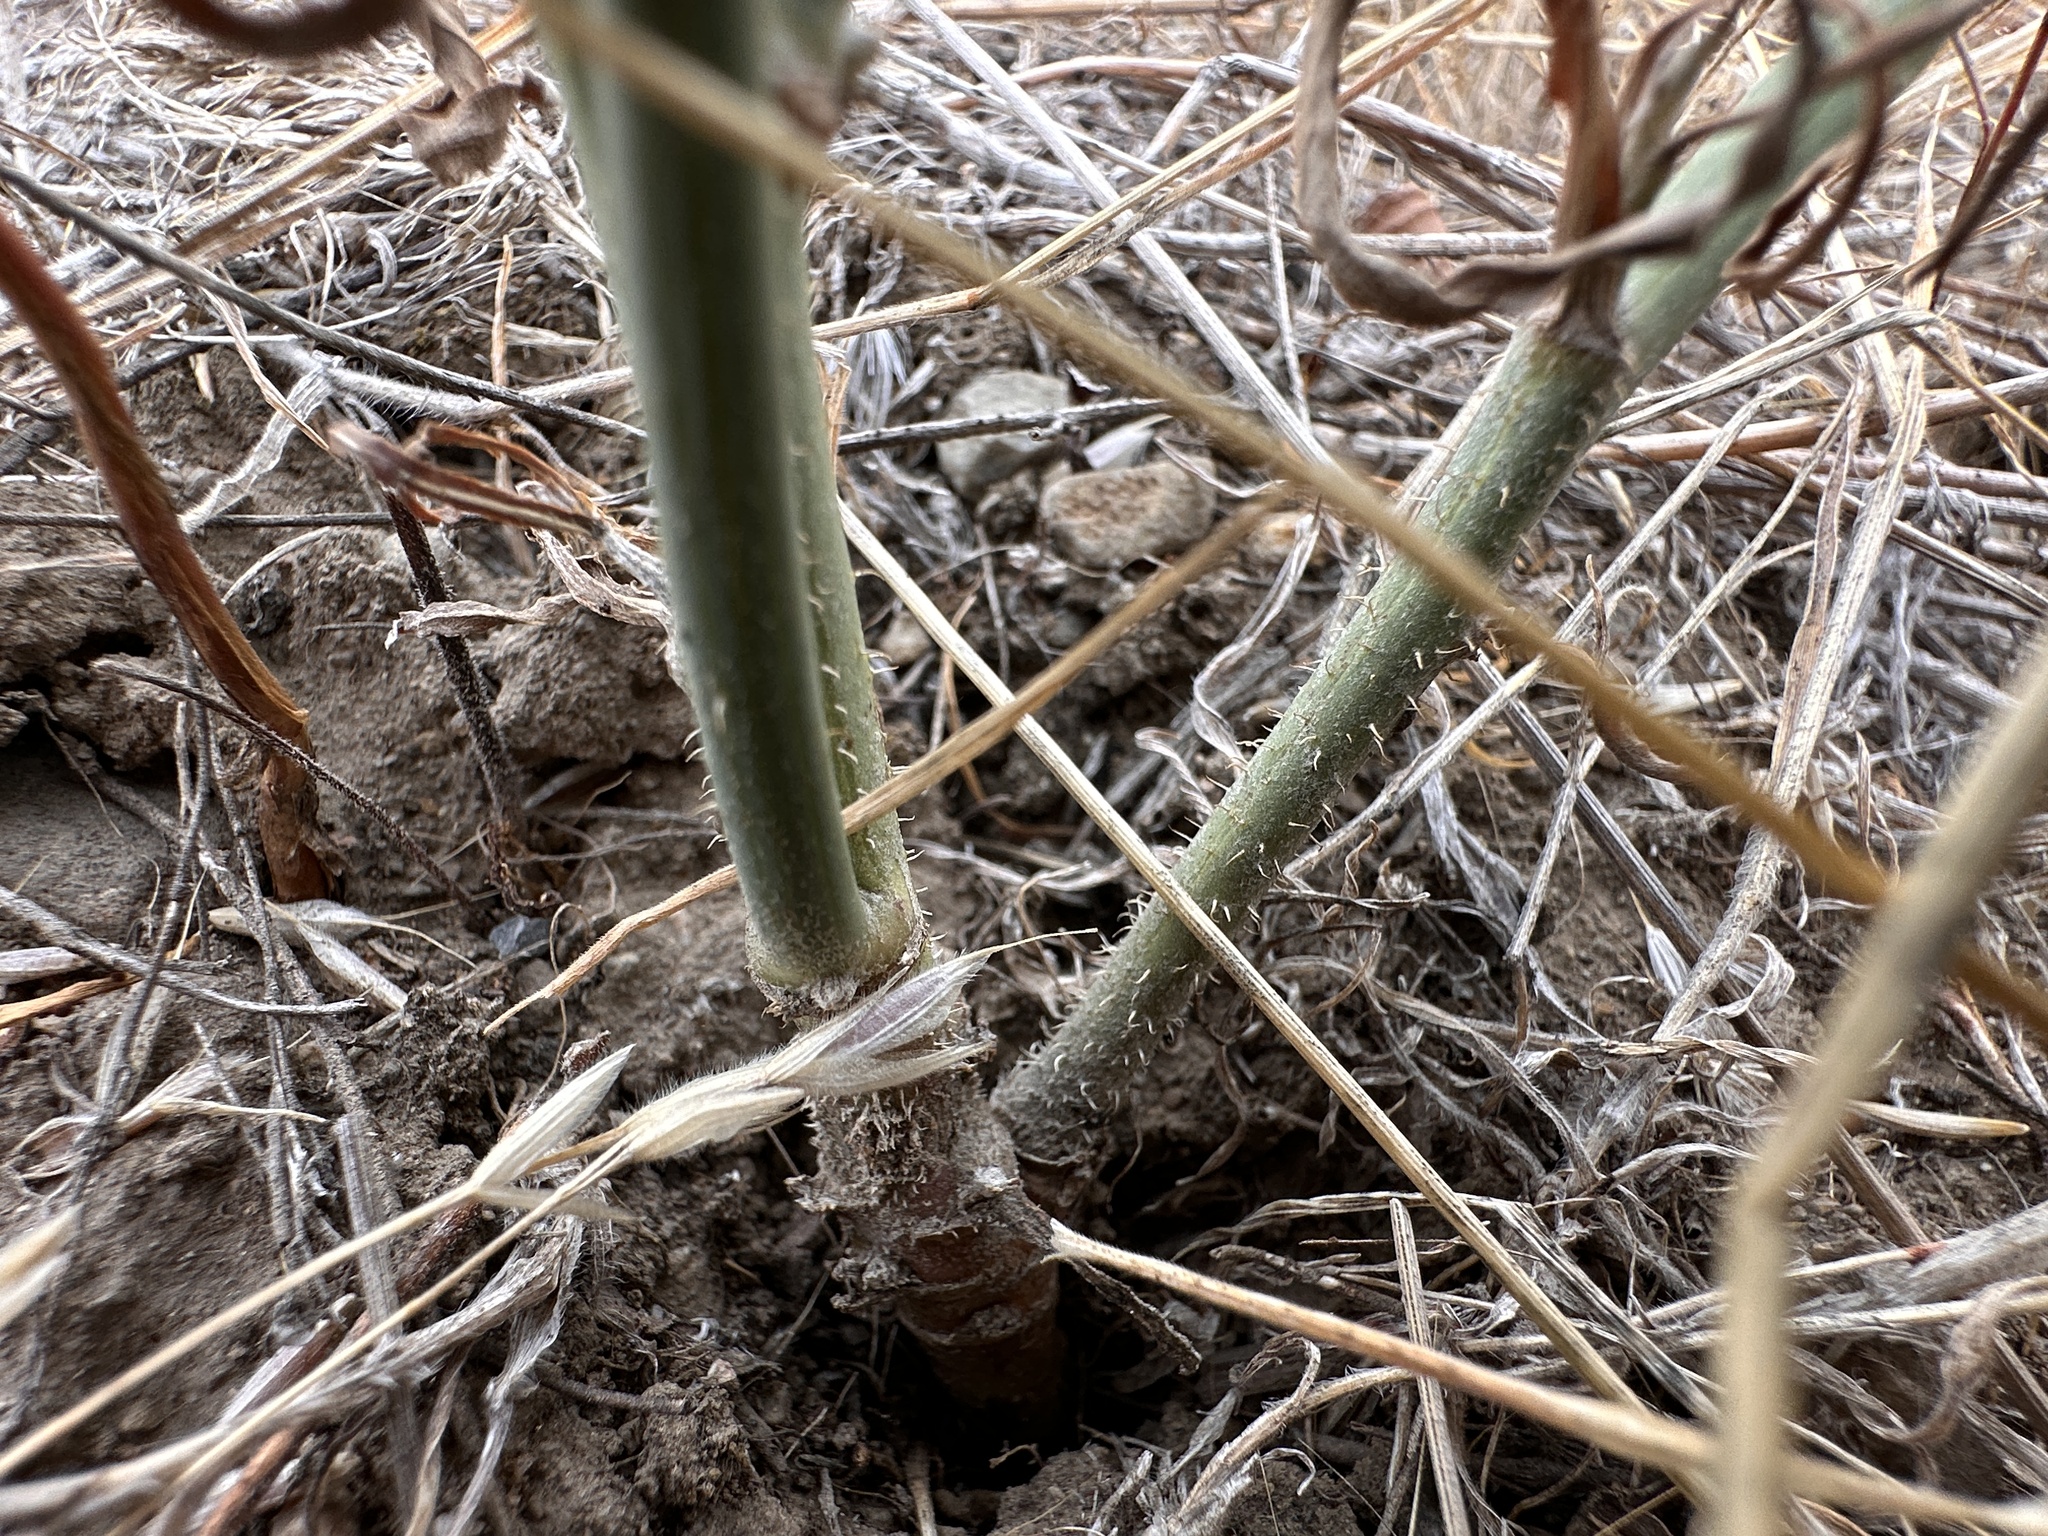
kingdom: Plantae
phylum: Tracheophyta
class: Magnoliopsida
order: Asterales
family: Asteraceae
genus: Chondrilla
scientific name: Chondrilla juncea
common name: Skeleton weed
